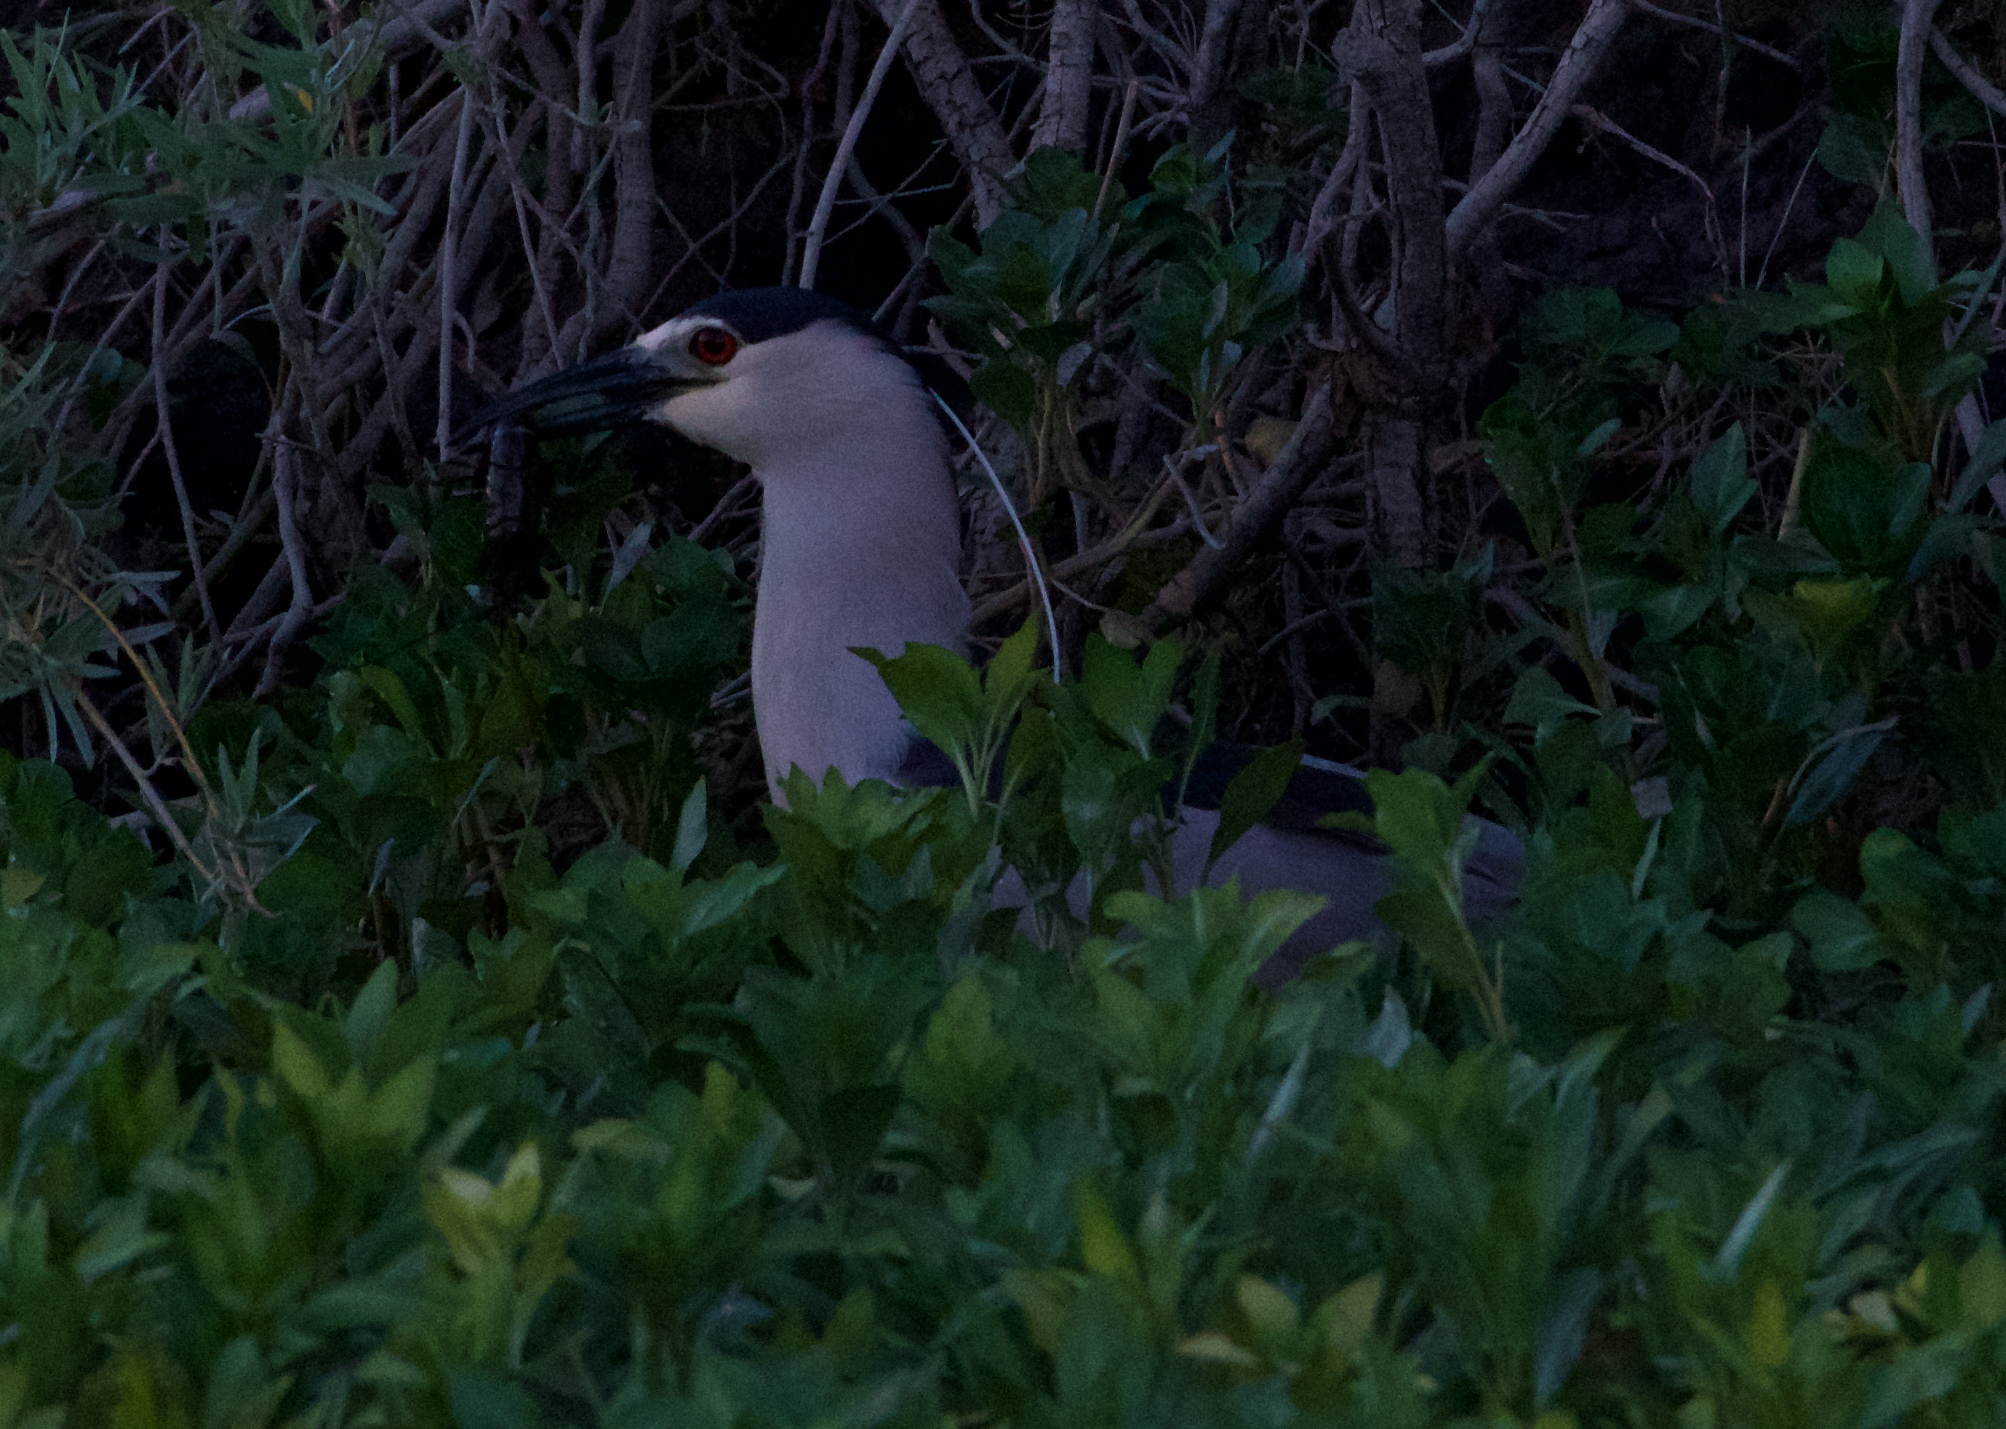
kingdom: Animalia
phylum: Chordata
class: Aves
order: Pelecaniformes
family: Ardeidae
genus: Nycticorax
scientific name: Nycticorax nycticorax
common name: Black-crowned night heron
